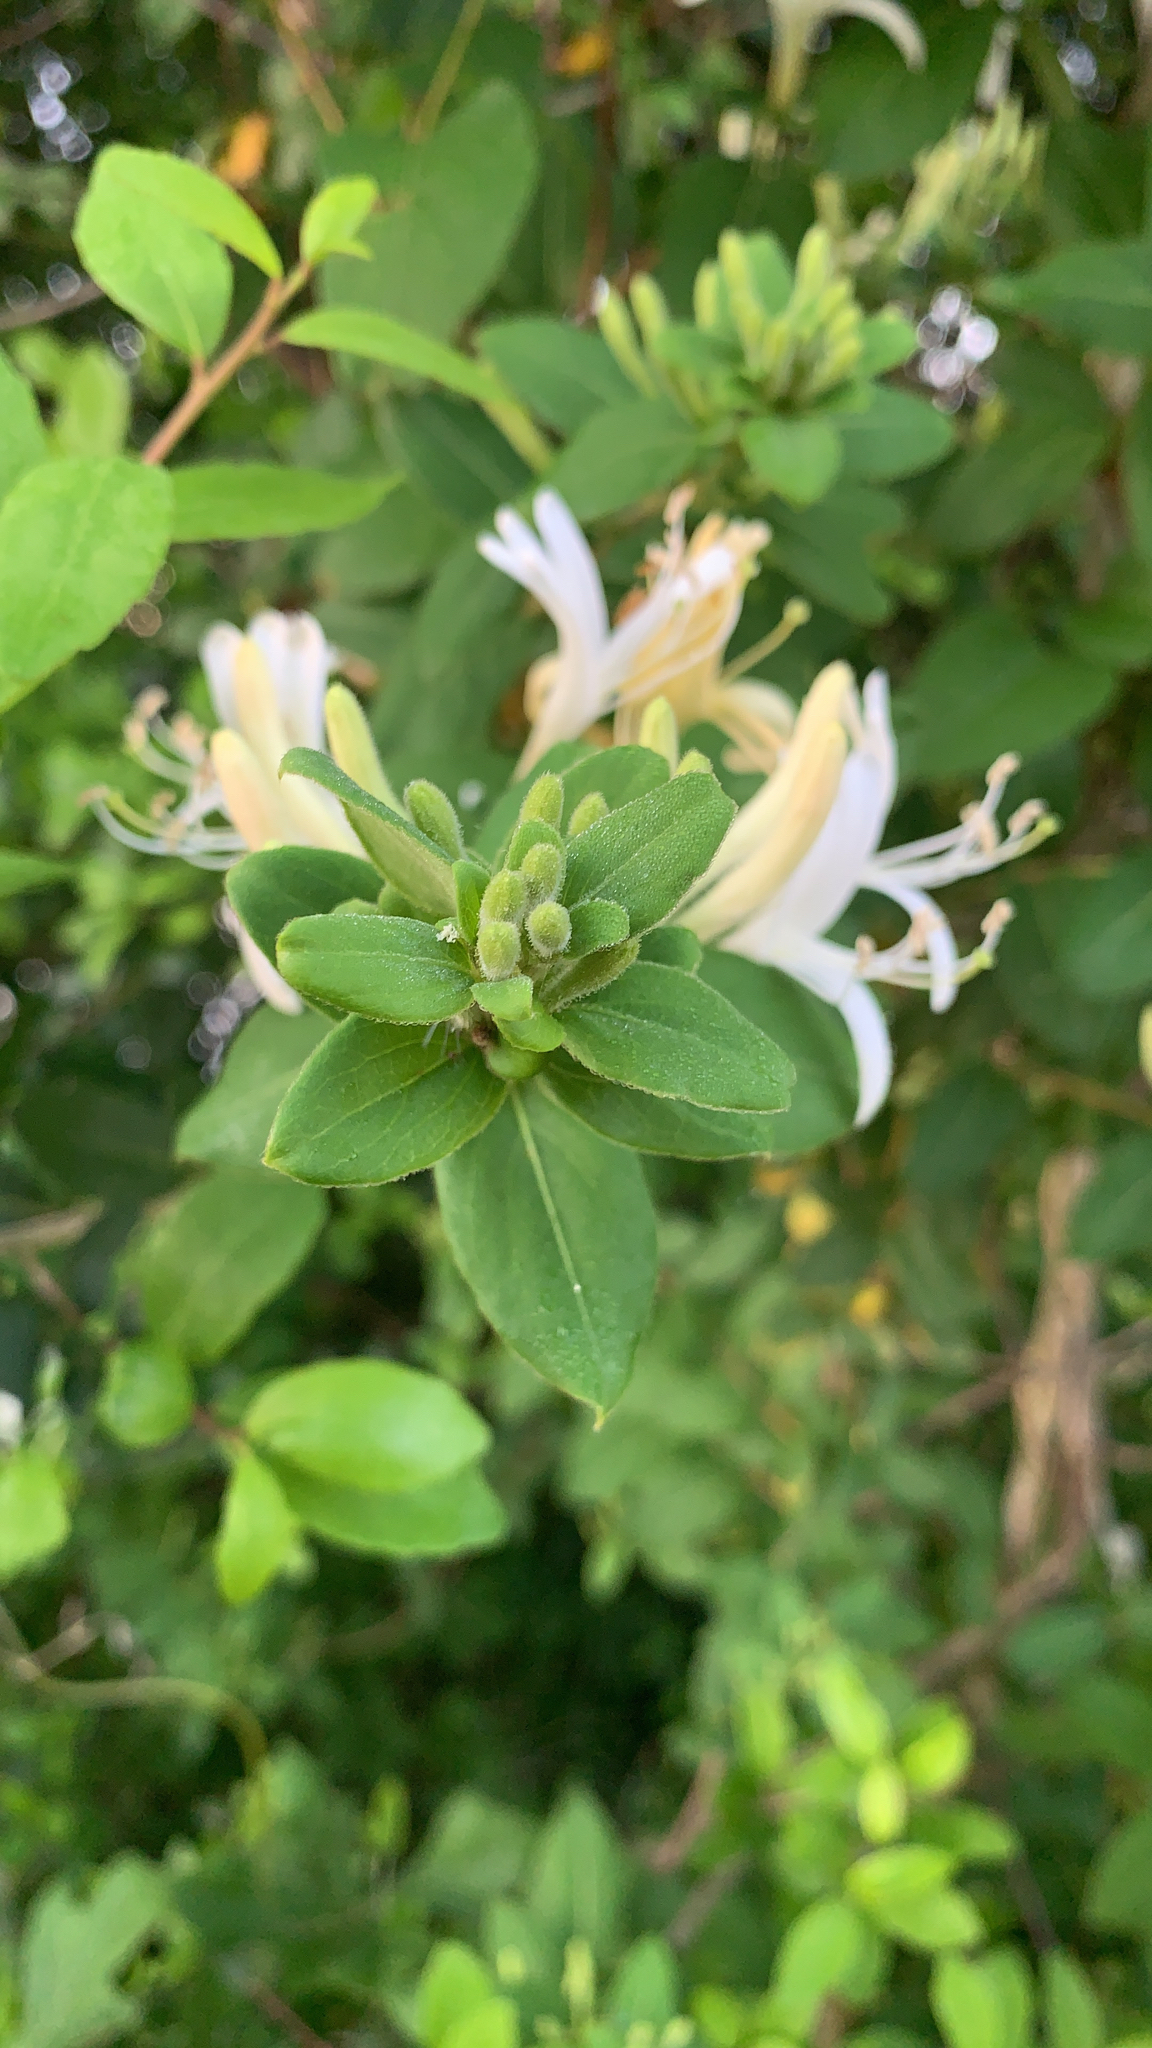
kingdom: Plantae
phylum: Tracheophyta
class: Magnoliopsida
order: Dipsacales
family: Caprifoliaceae
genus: Lonicera
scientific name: Lonicera japonica
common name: Japanese honeysuckle
